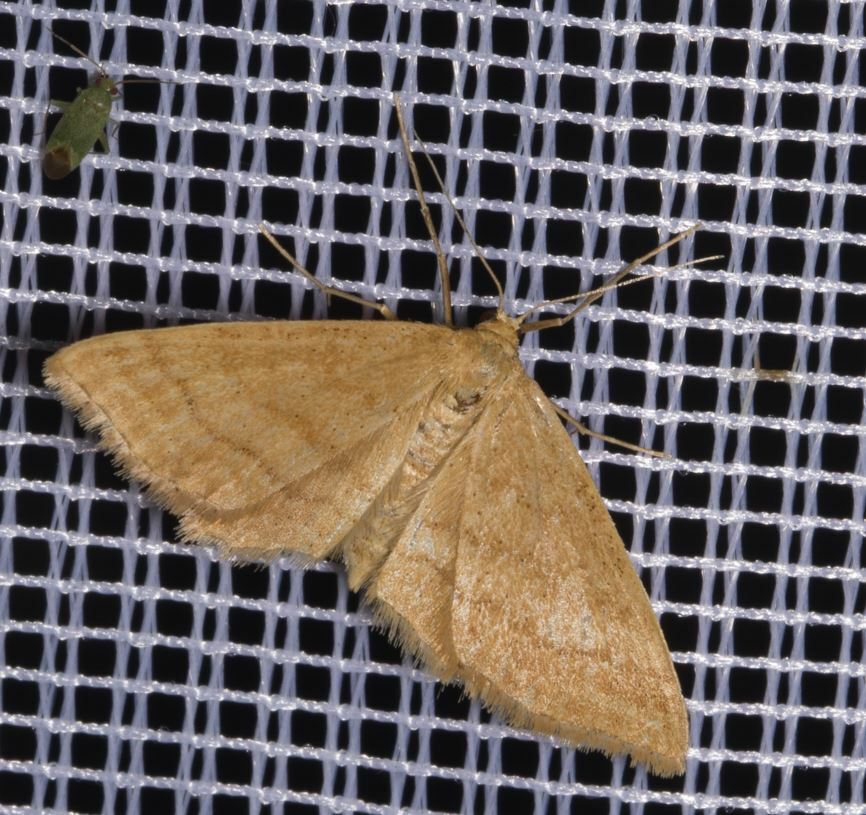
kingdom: Animalia
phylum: Arthropoda
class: Insecta
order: Lepidoptera
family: Geometridae
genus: Idaea
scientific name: Idaea ochrata
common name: Bright wave
